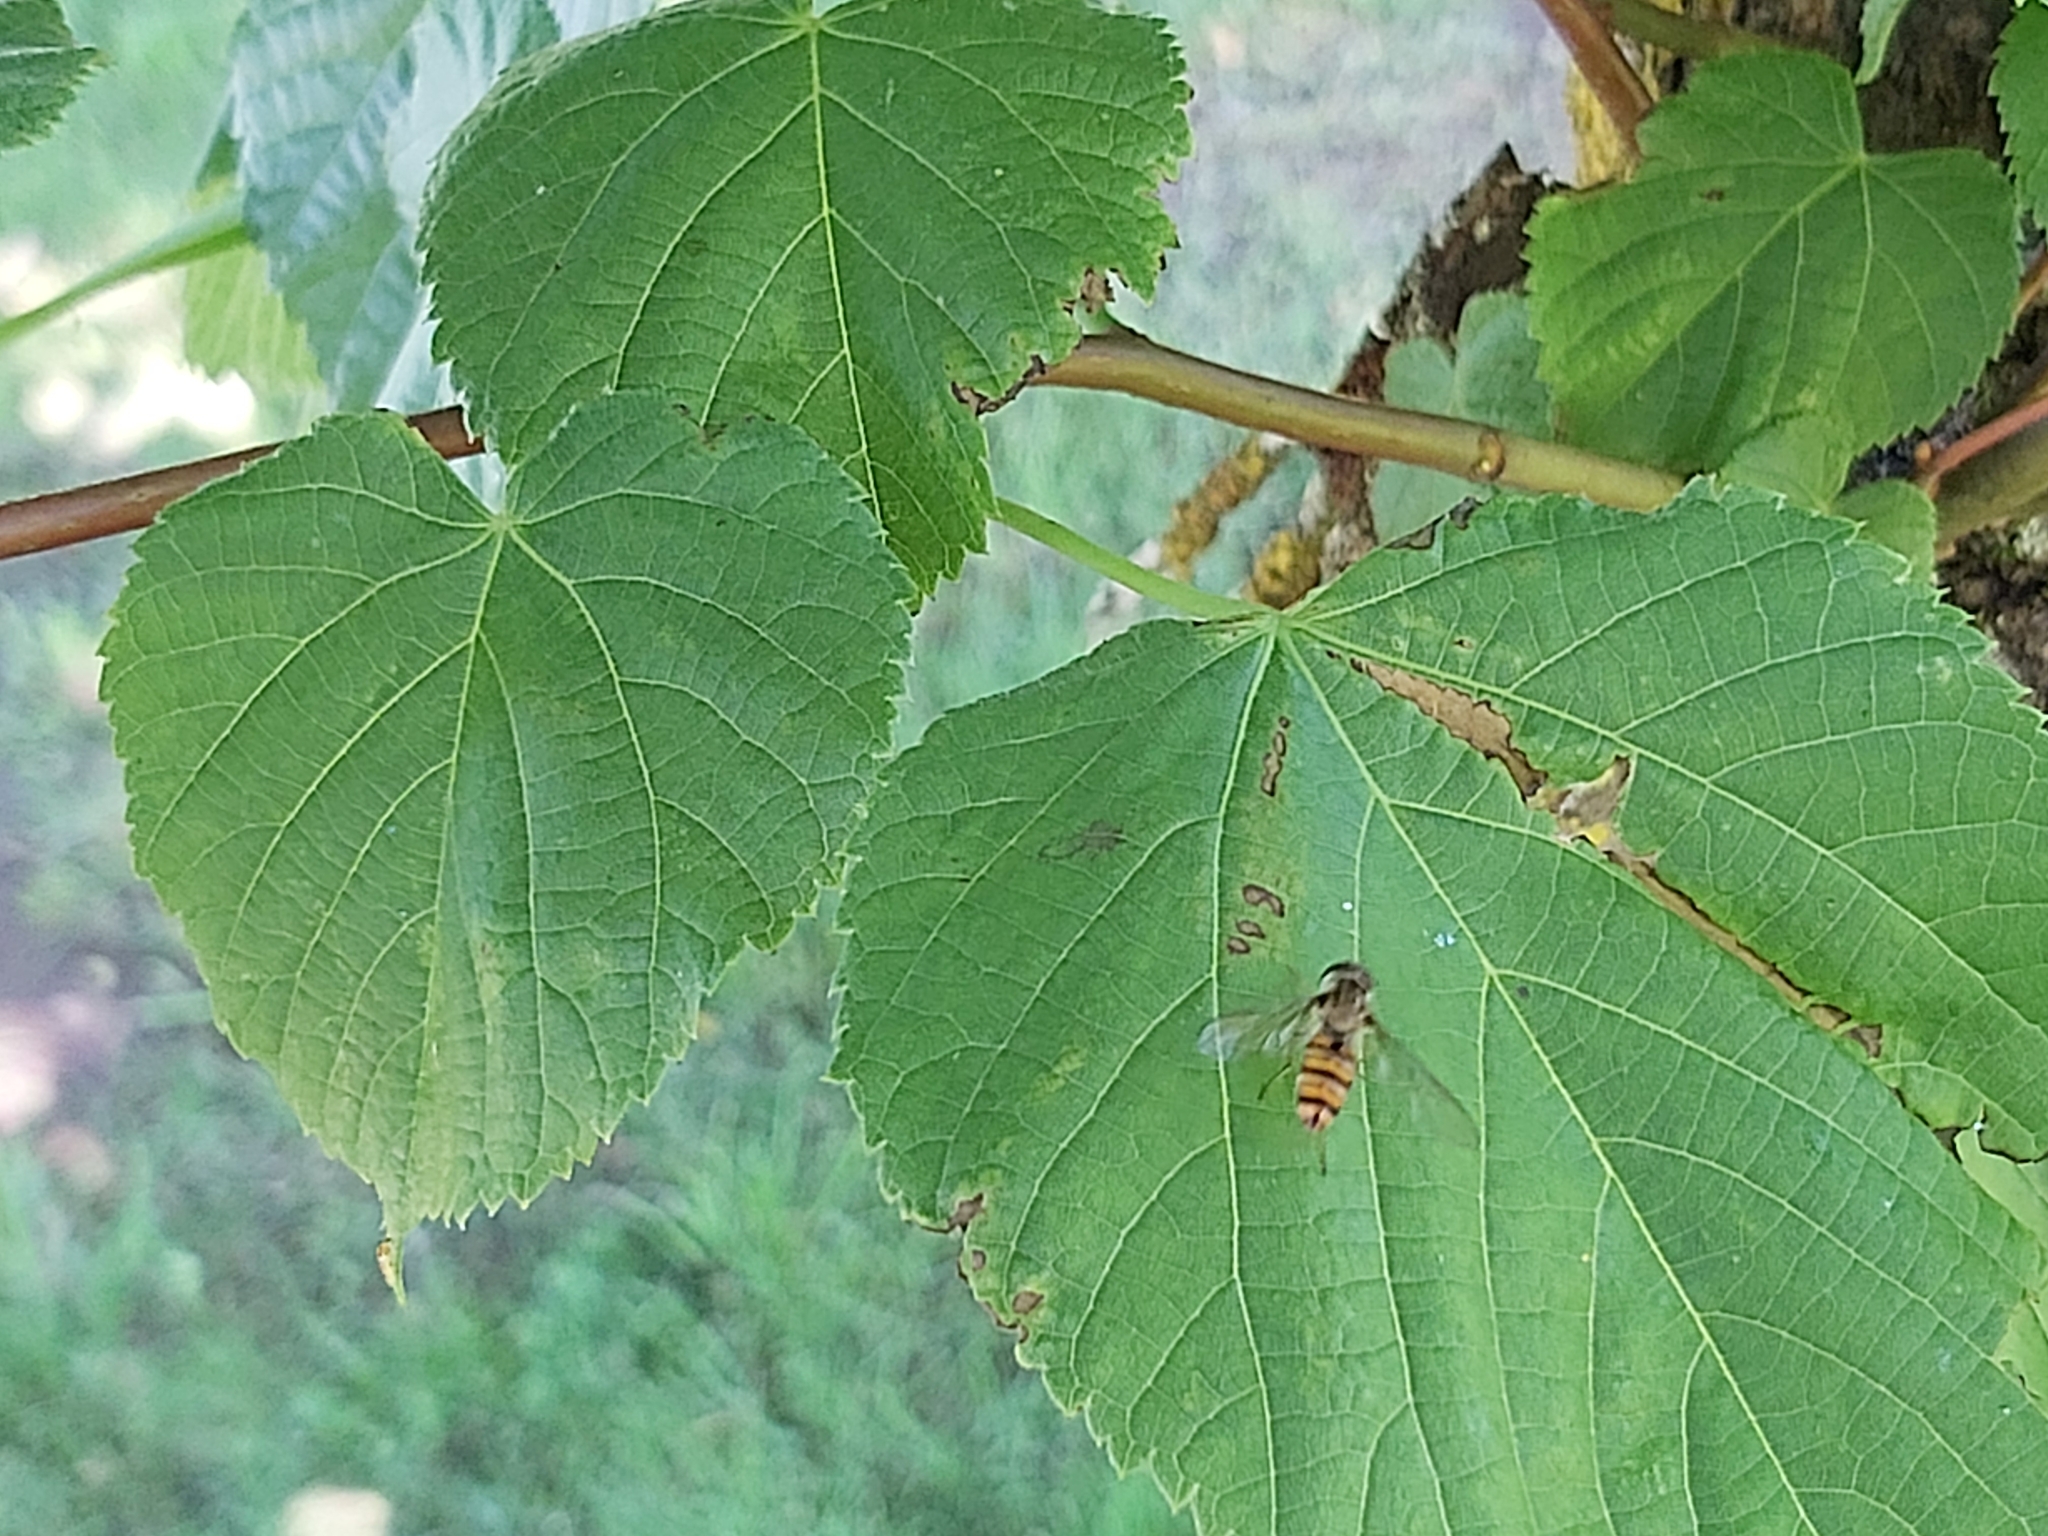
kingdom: Animalia
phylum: Arthropoda
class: Insecta
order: Diptera
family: Syrphidae
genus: Episyrphus
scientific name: Episyrphus balteatus
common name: Marmalade hoverfly
